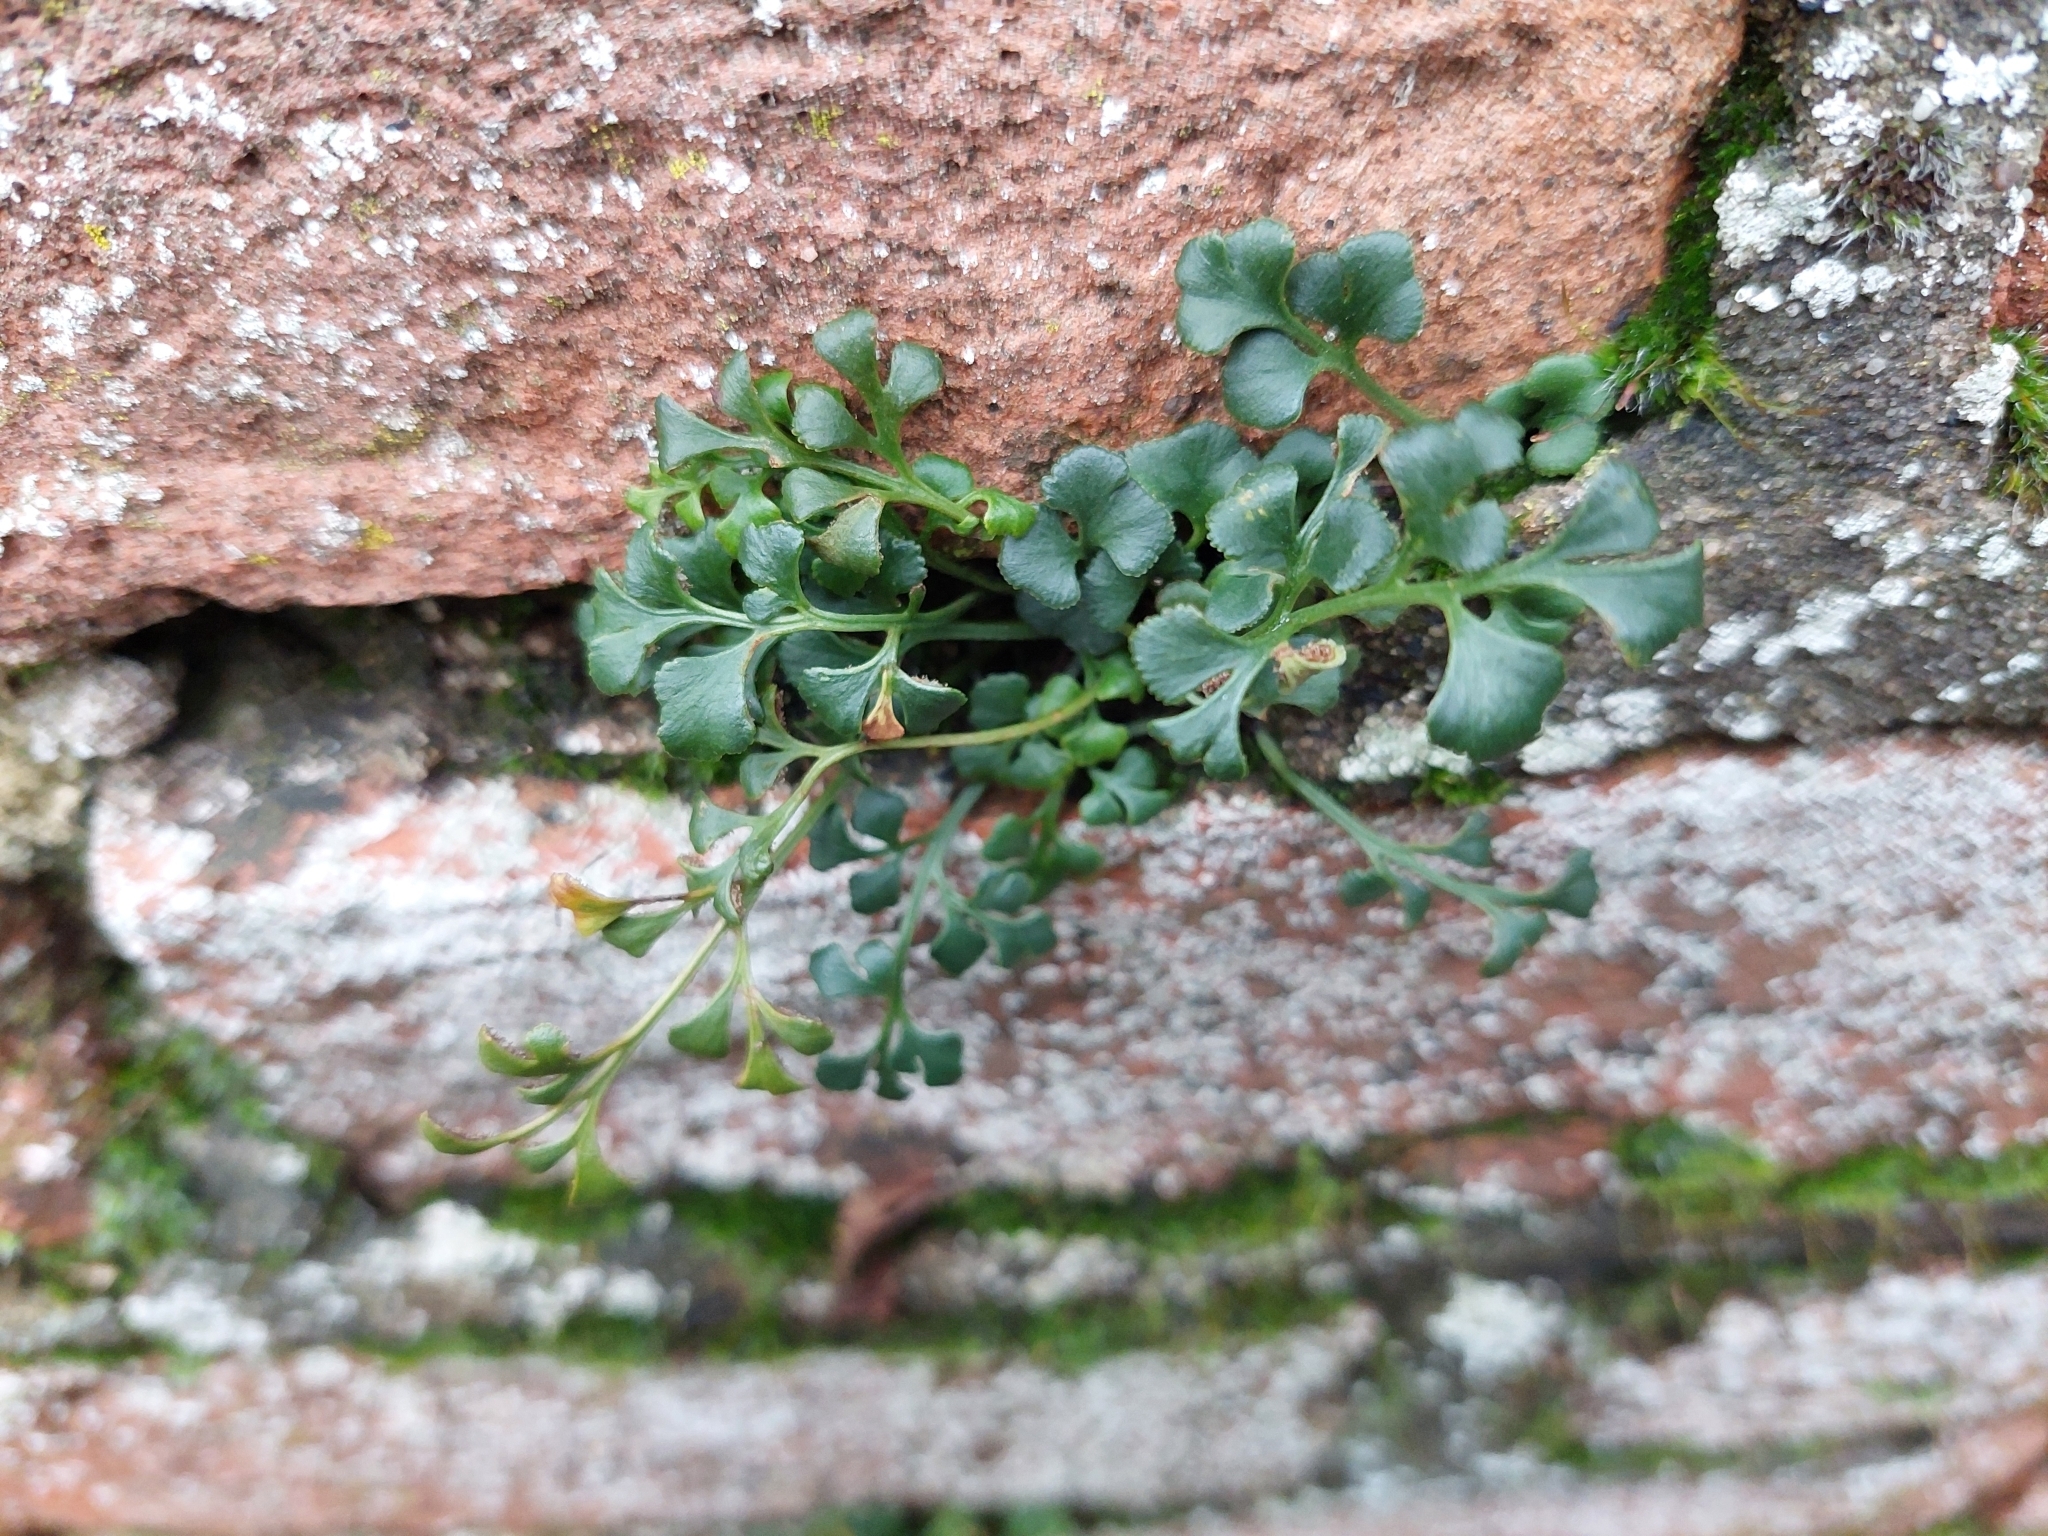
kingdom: Plantae
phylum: Tracheophyta
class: Polypodiopsida
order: Polypodiales
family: Aspleniaceae
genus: Asplenium
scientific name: Asplenium ruta-muraria
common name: Wall-rue
